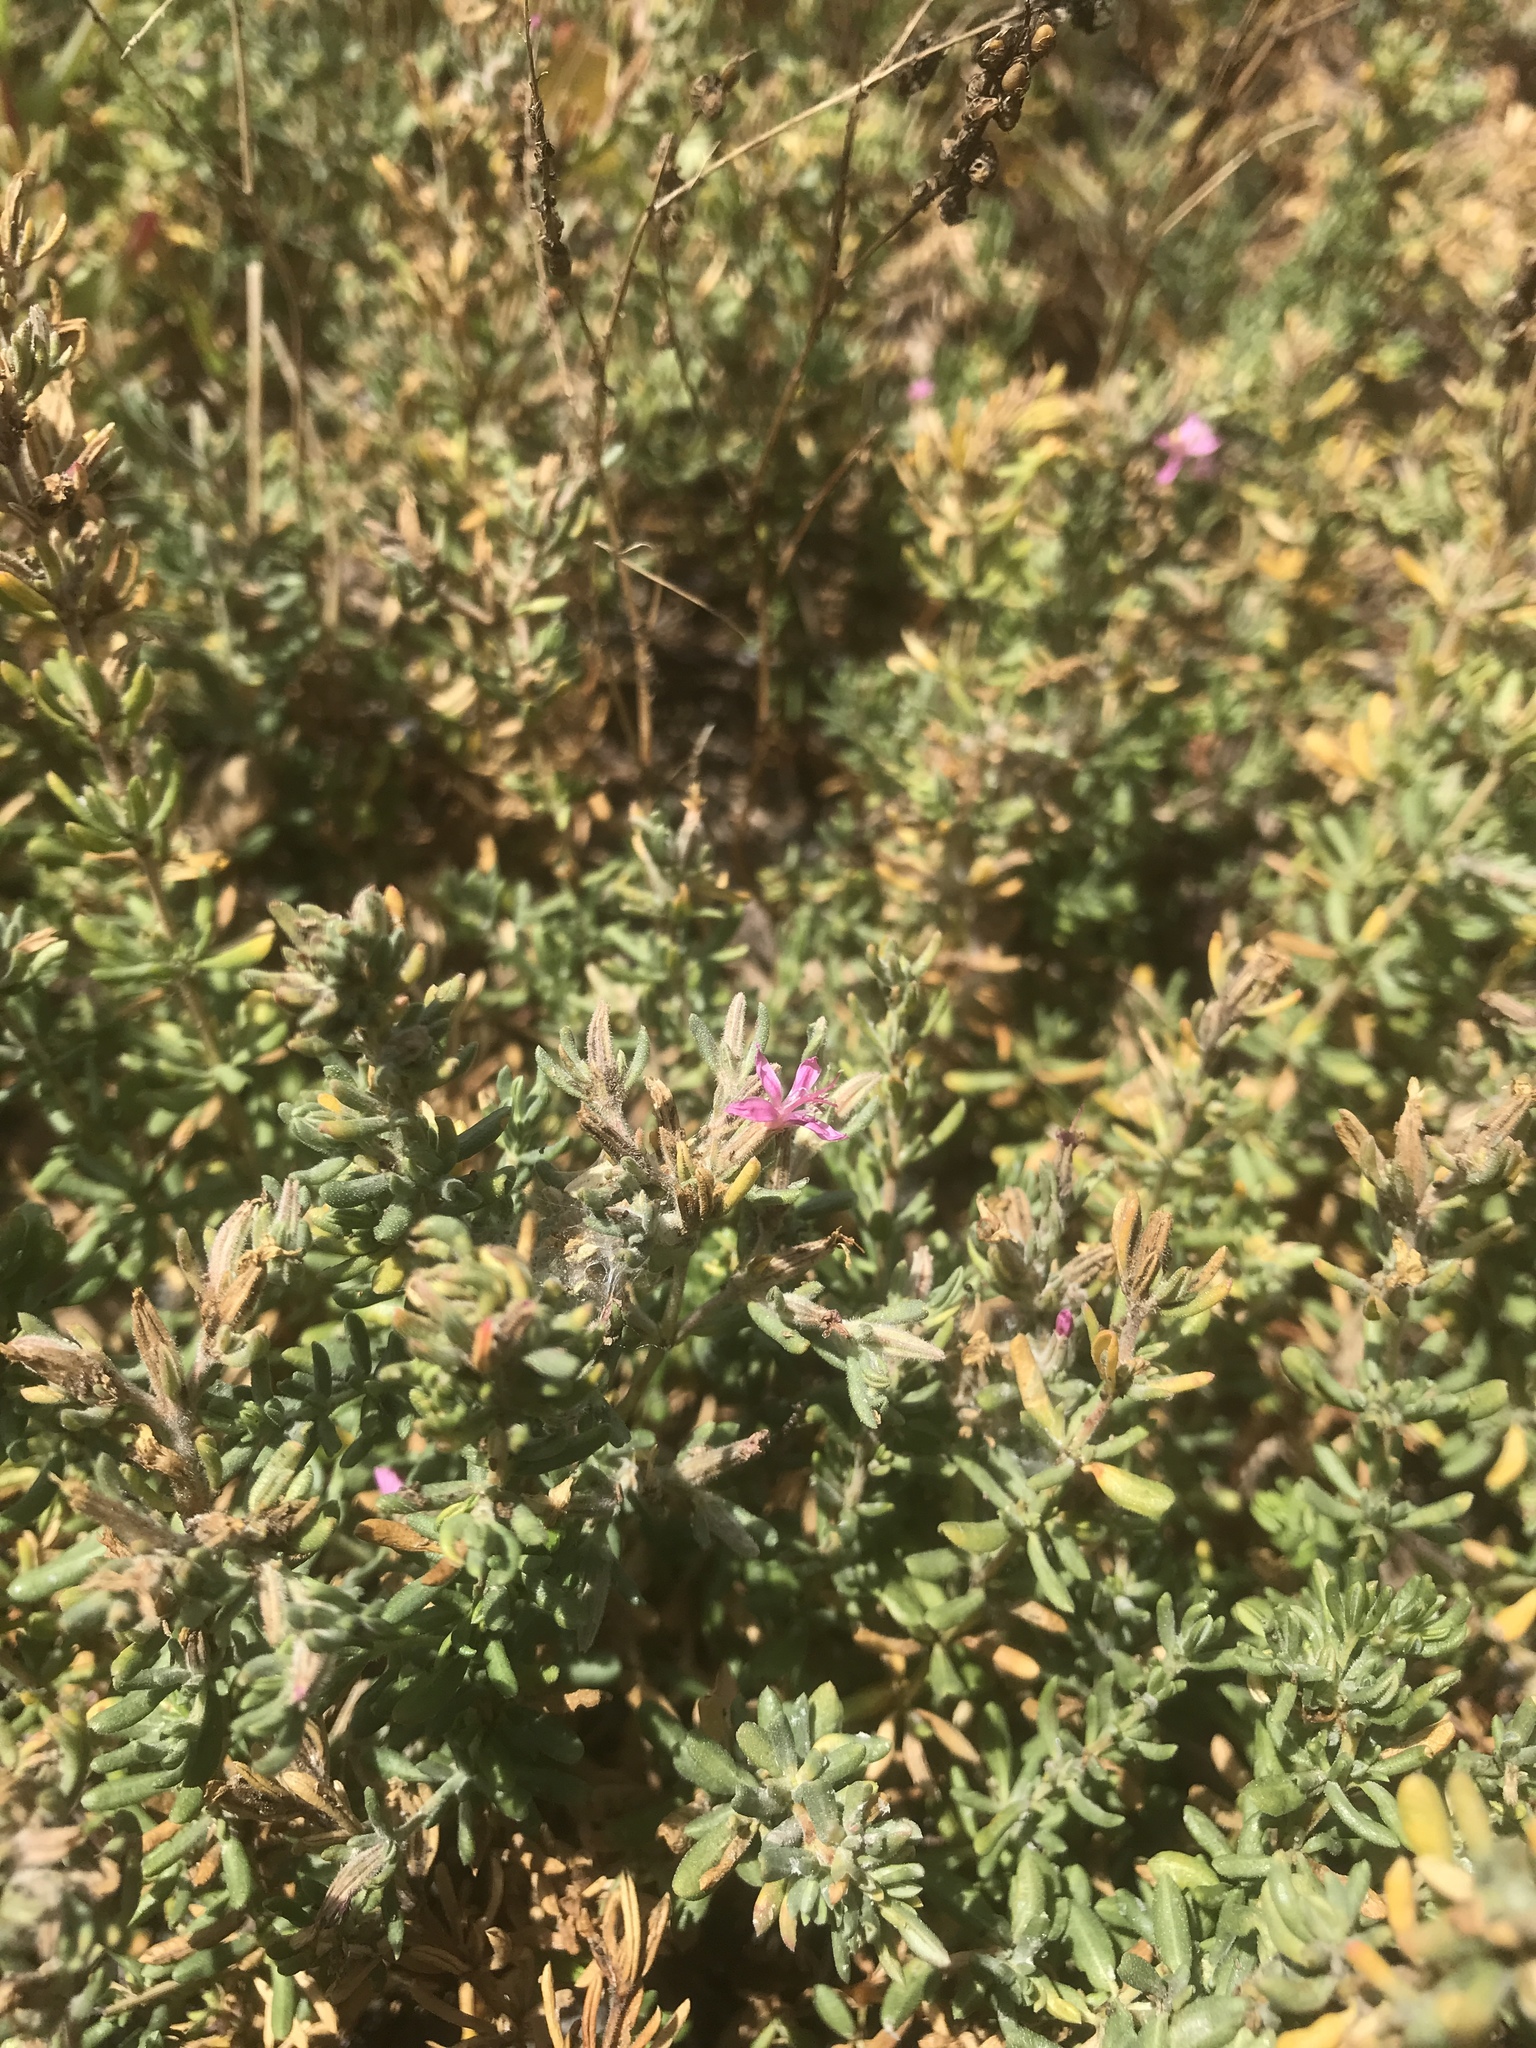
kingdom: Plantae
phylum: Tracheophyta
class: Magnoliopsida
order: Caryophyllales
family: Frankeniaceae
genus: Frankenia
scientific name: Frankenia salina
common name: Alkali seaheath
